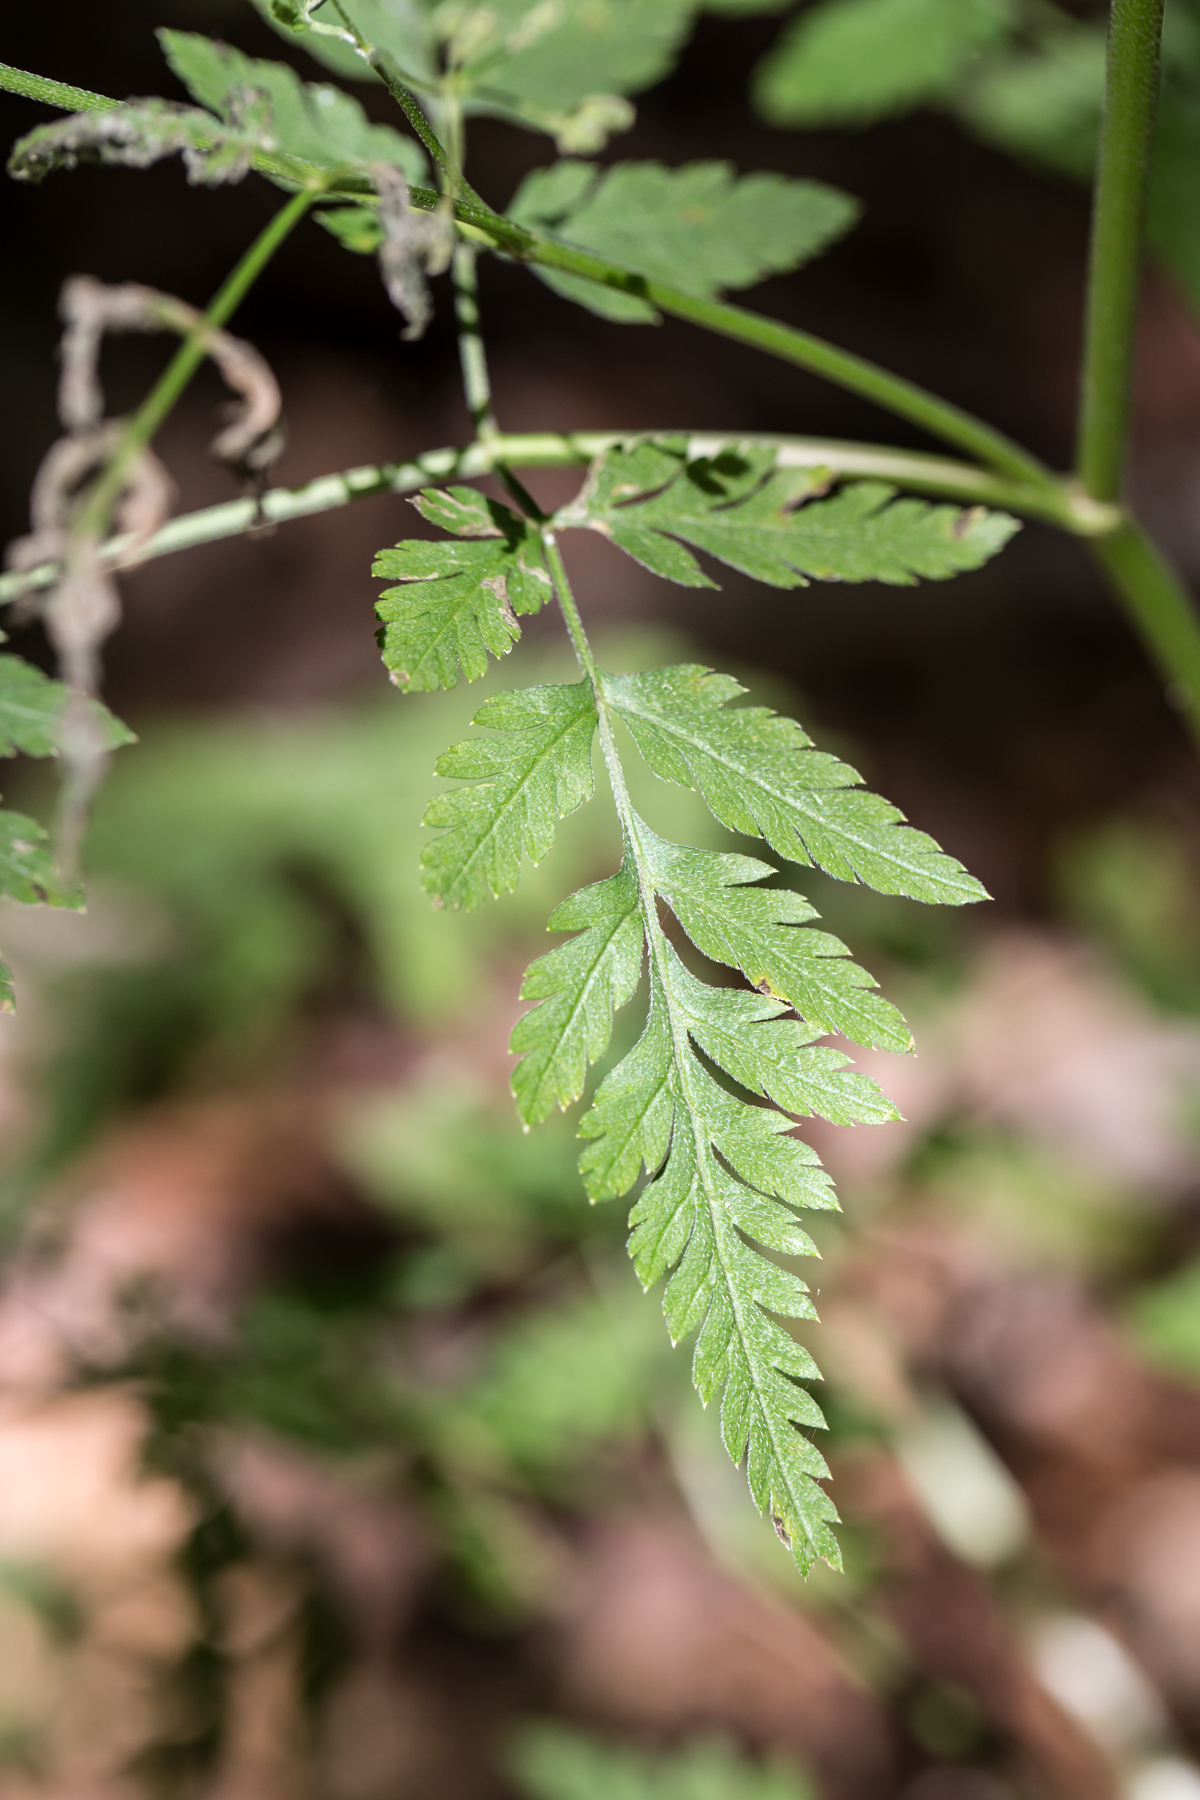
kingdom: Plantae
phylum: Tracheophyta
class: Magnoliopsida
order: Apiales
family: Apiaceae
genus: Torilis
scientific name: Torilis japonica
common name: Upright hedge-parsley
